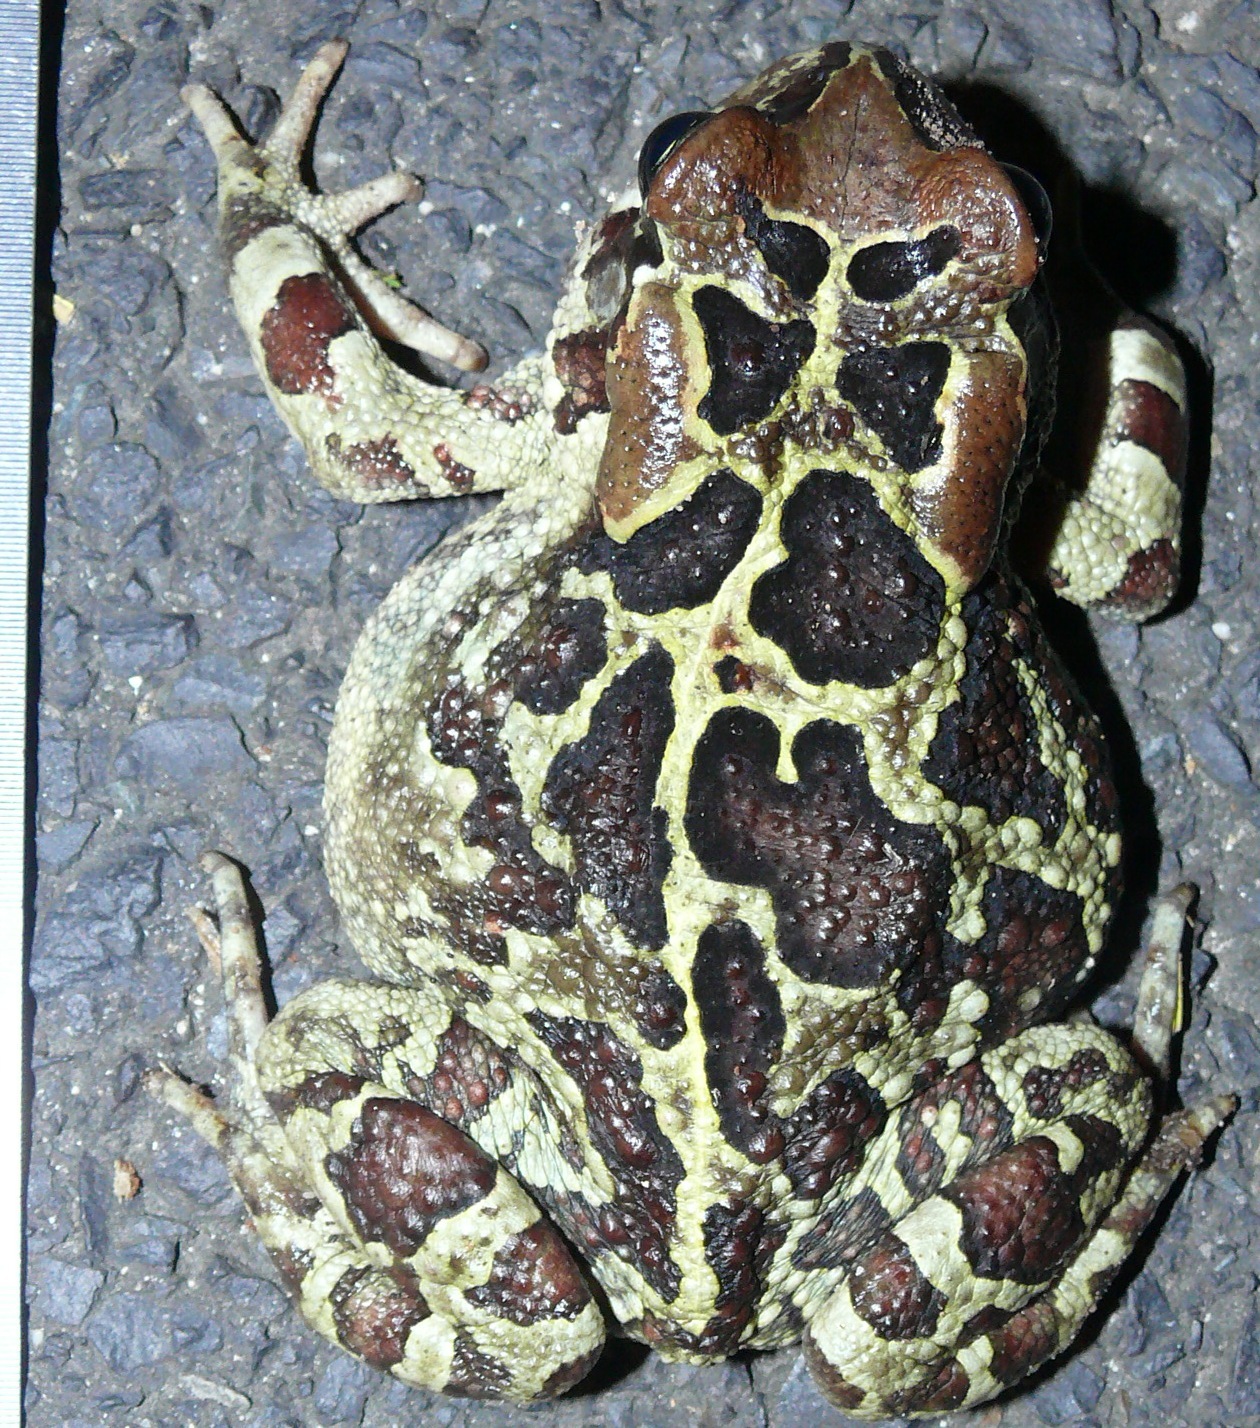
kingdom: Animalia
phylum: Chordata
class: Amphibia
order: Anura
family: Bufonidae
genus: Sclerophrys
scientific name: Sclerophrys pantherina
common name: Panther toad
